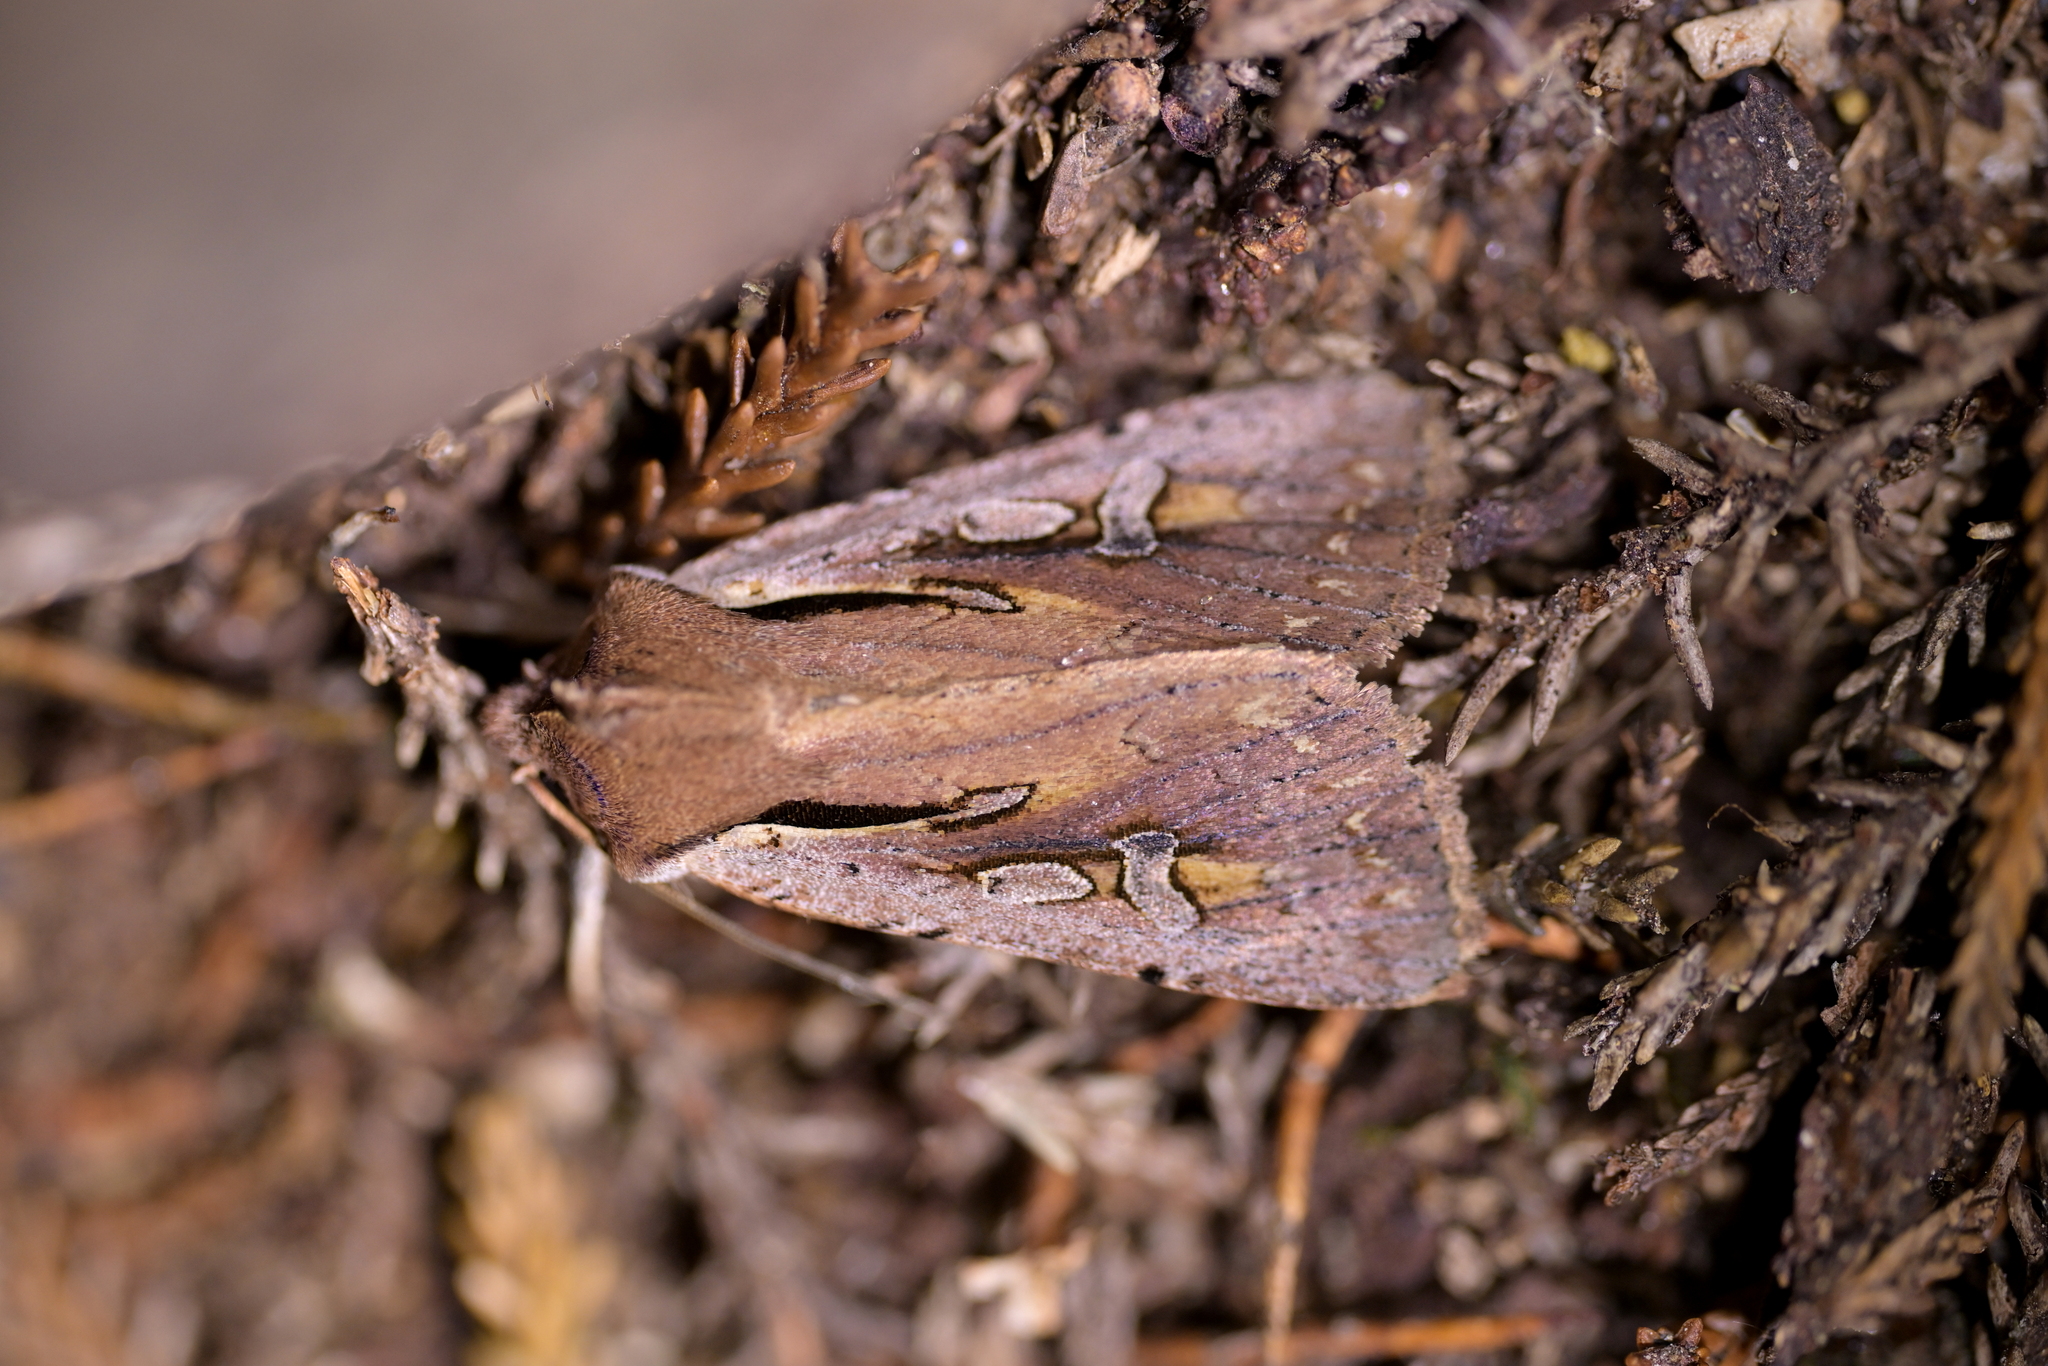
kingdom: Animalia
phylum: Arthropoda
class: Insecta
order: Lepidoptera
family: Noctuidae
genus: Ichneutica
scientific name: Ichneutica atristriga
